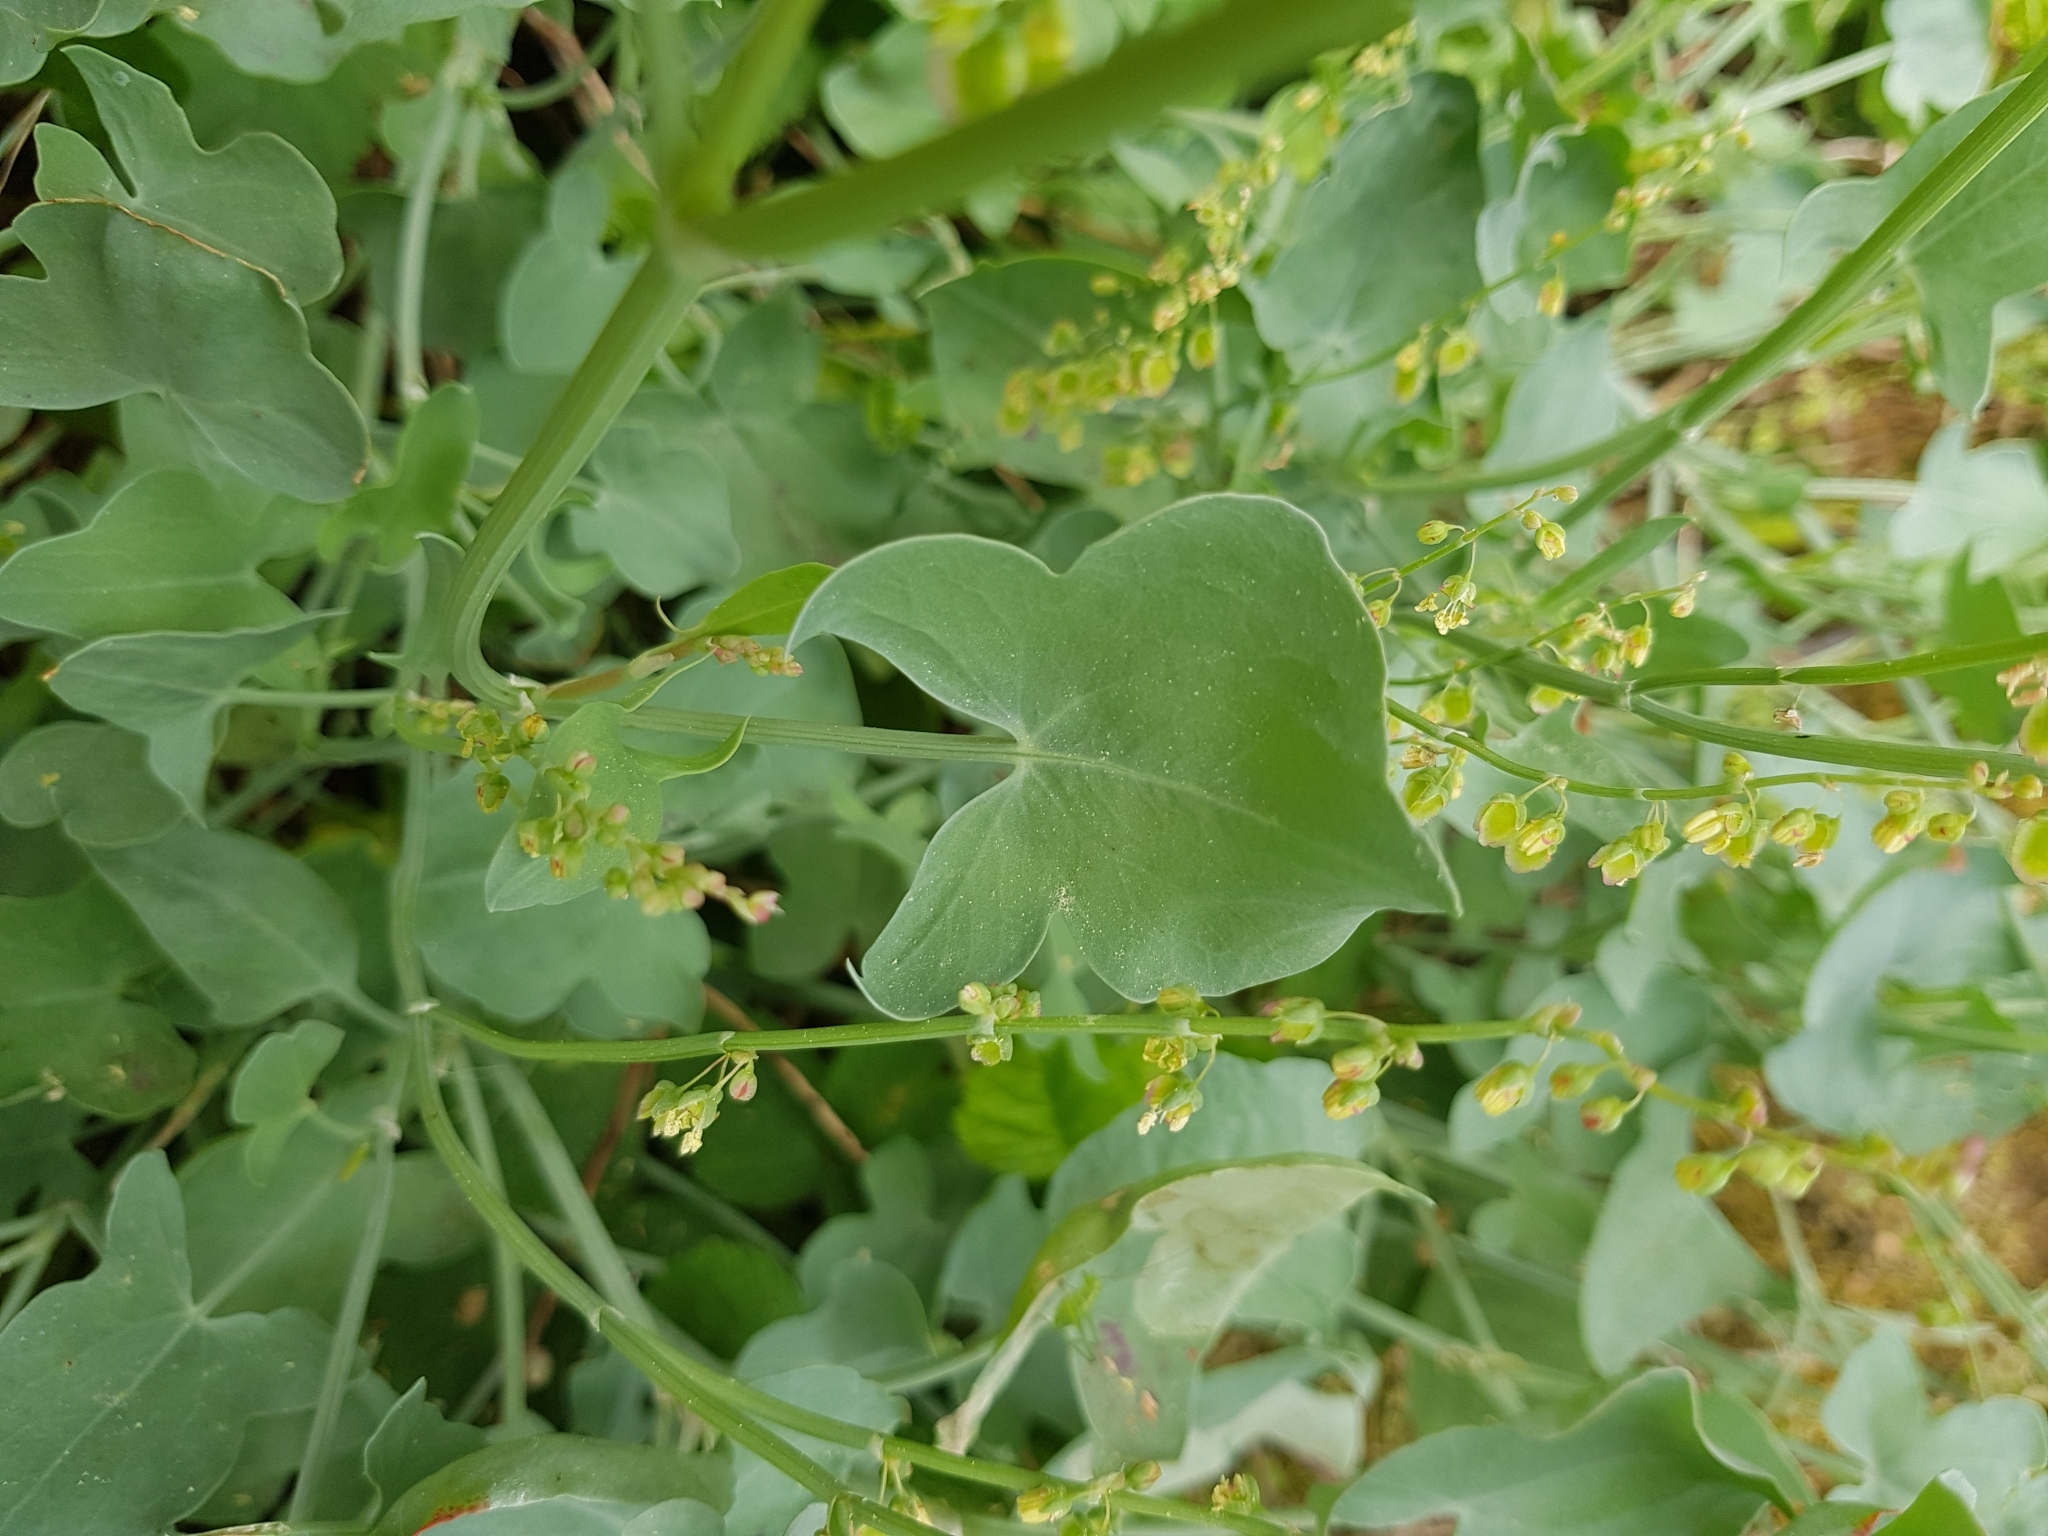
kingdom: Plantae
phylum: Tracheophyta
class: Magnoliopsida
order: Caryophyllales
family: Polygonaceae
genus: Rumex
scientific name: Rumex scutatus
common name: French sorrel
